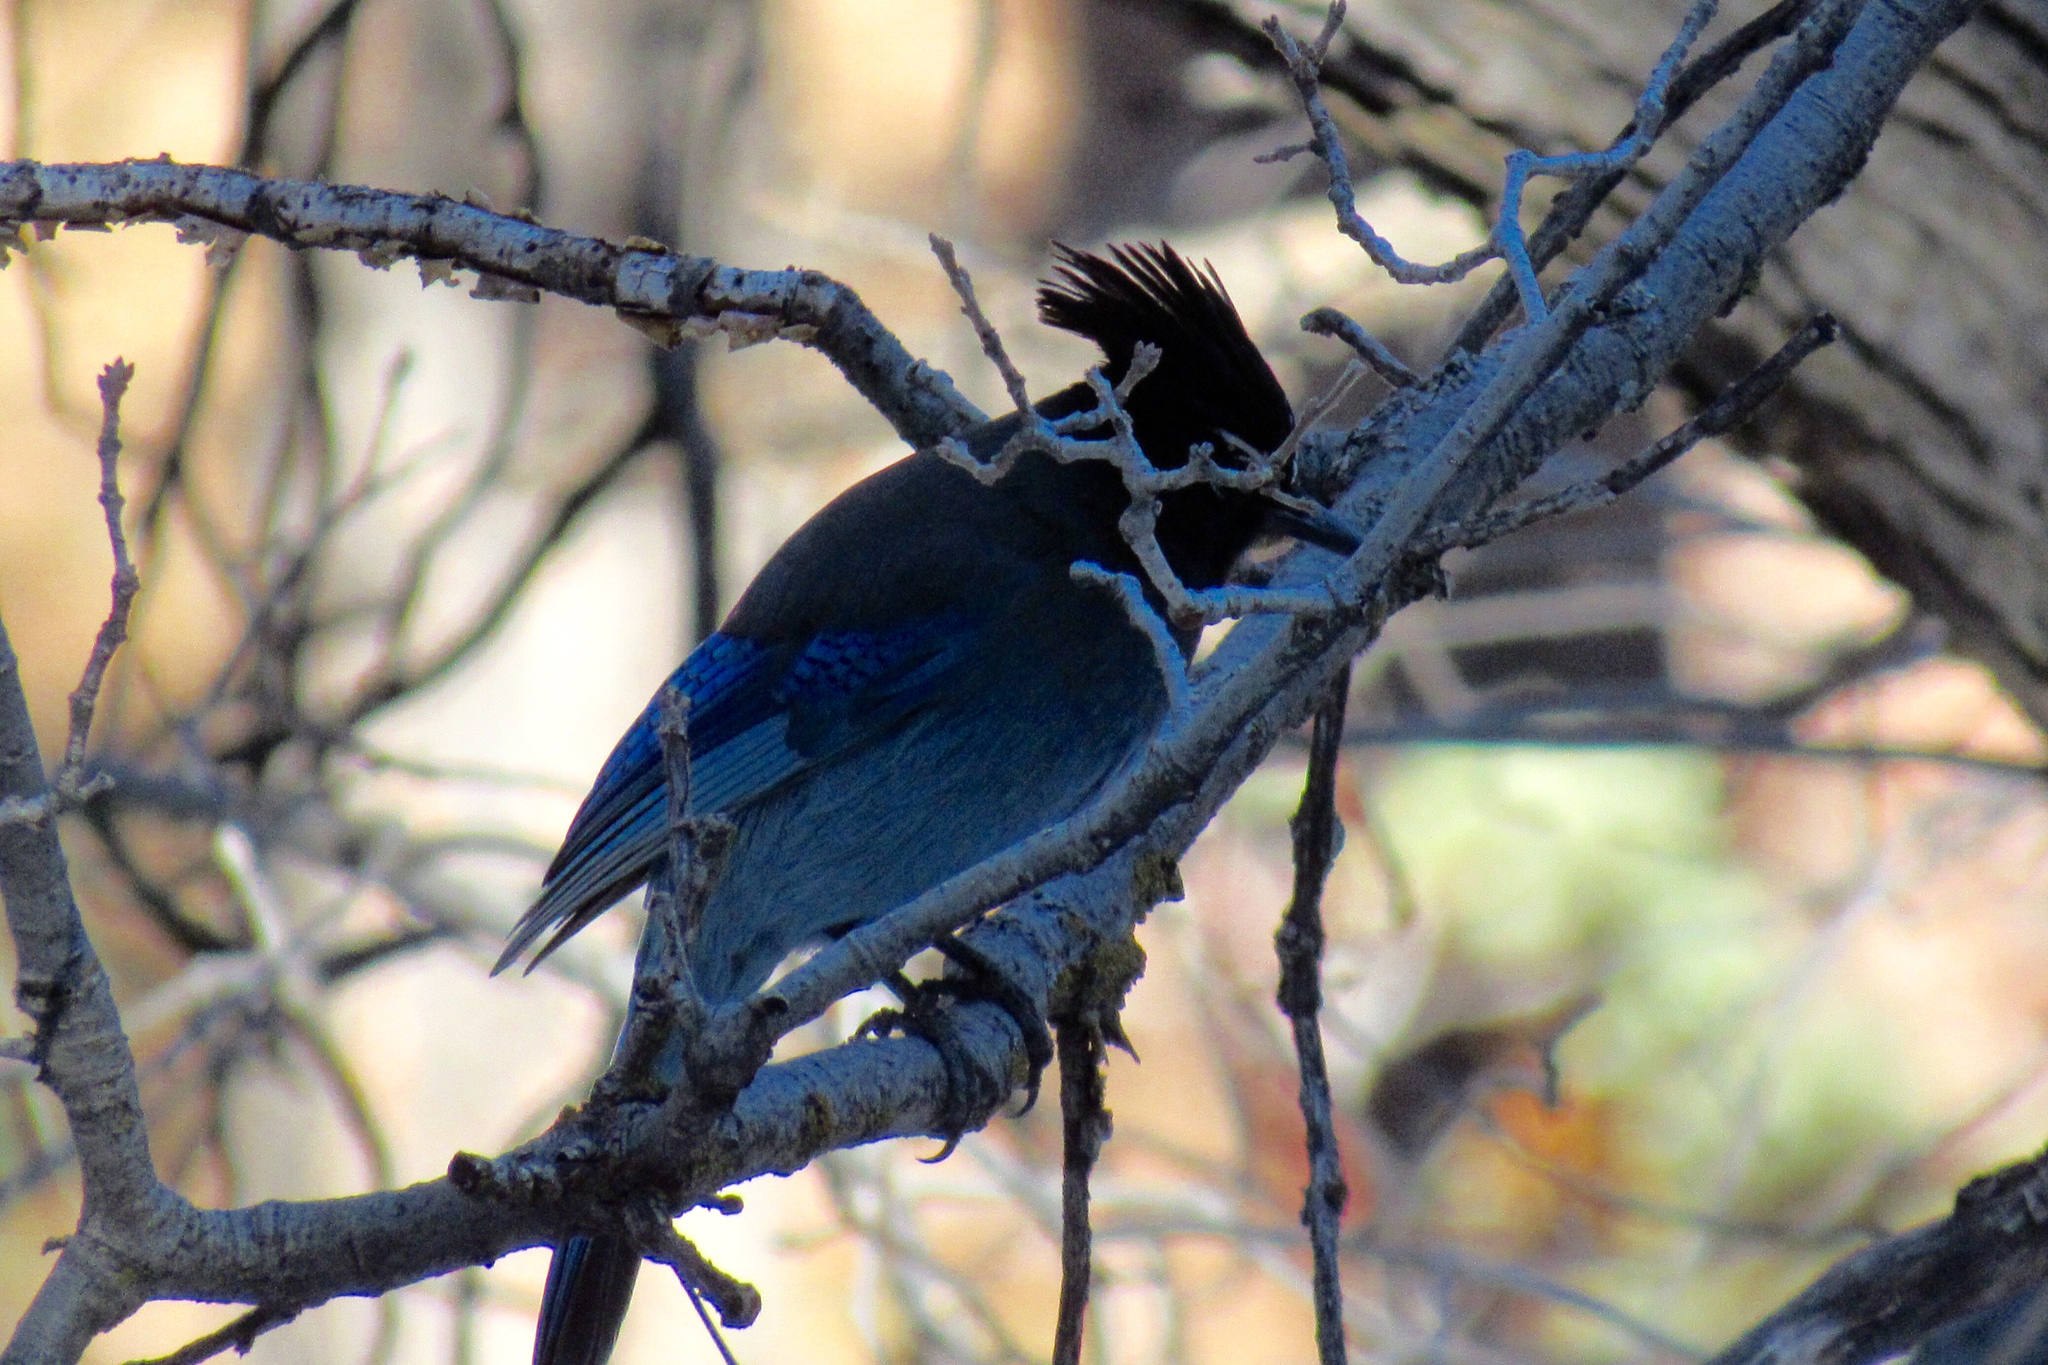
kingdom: Animalia
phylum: Chordata
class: Aves
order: Passeriformes
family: Corvidae
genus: Cyanocitta
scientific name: Cyanocitta stelleri
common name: Steller's jay
